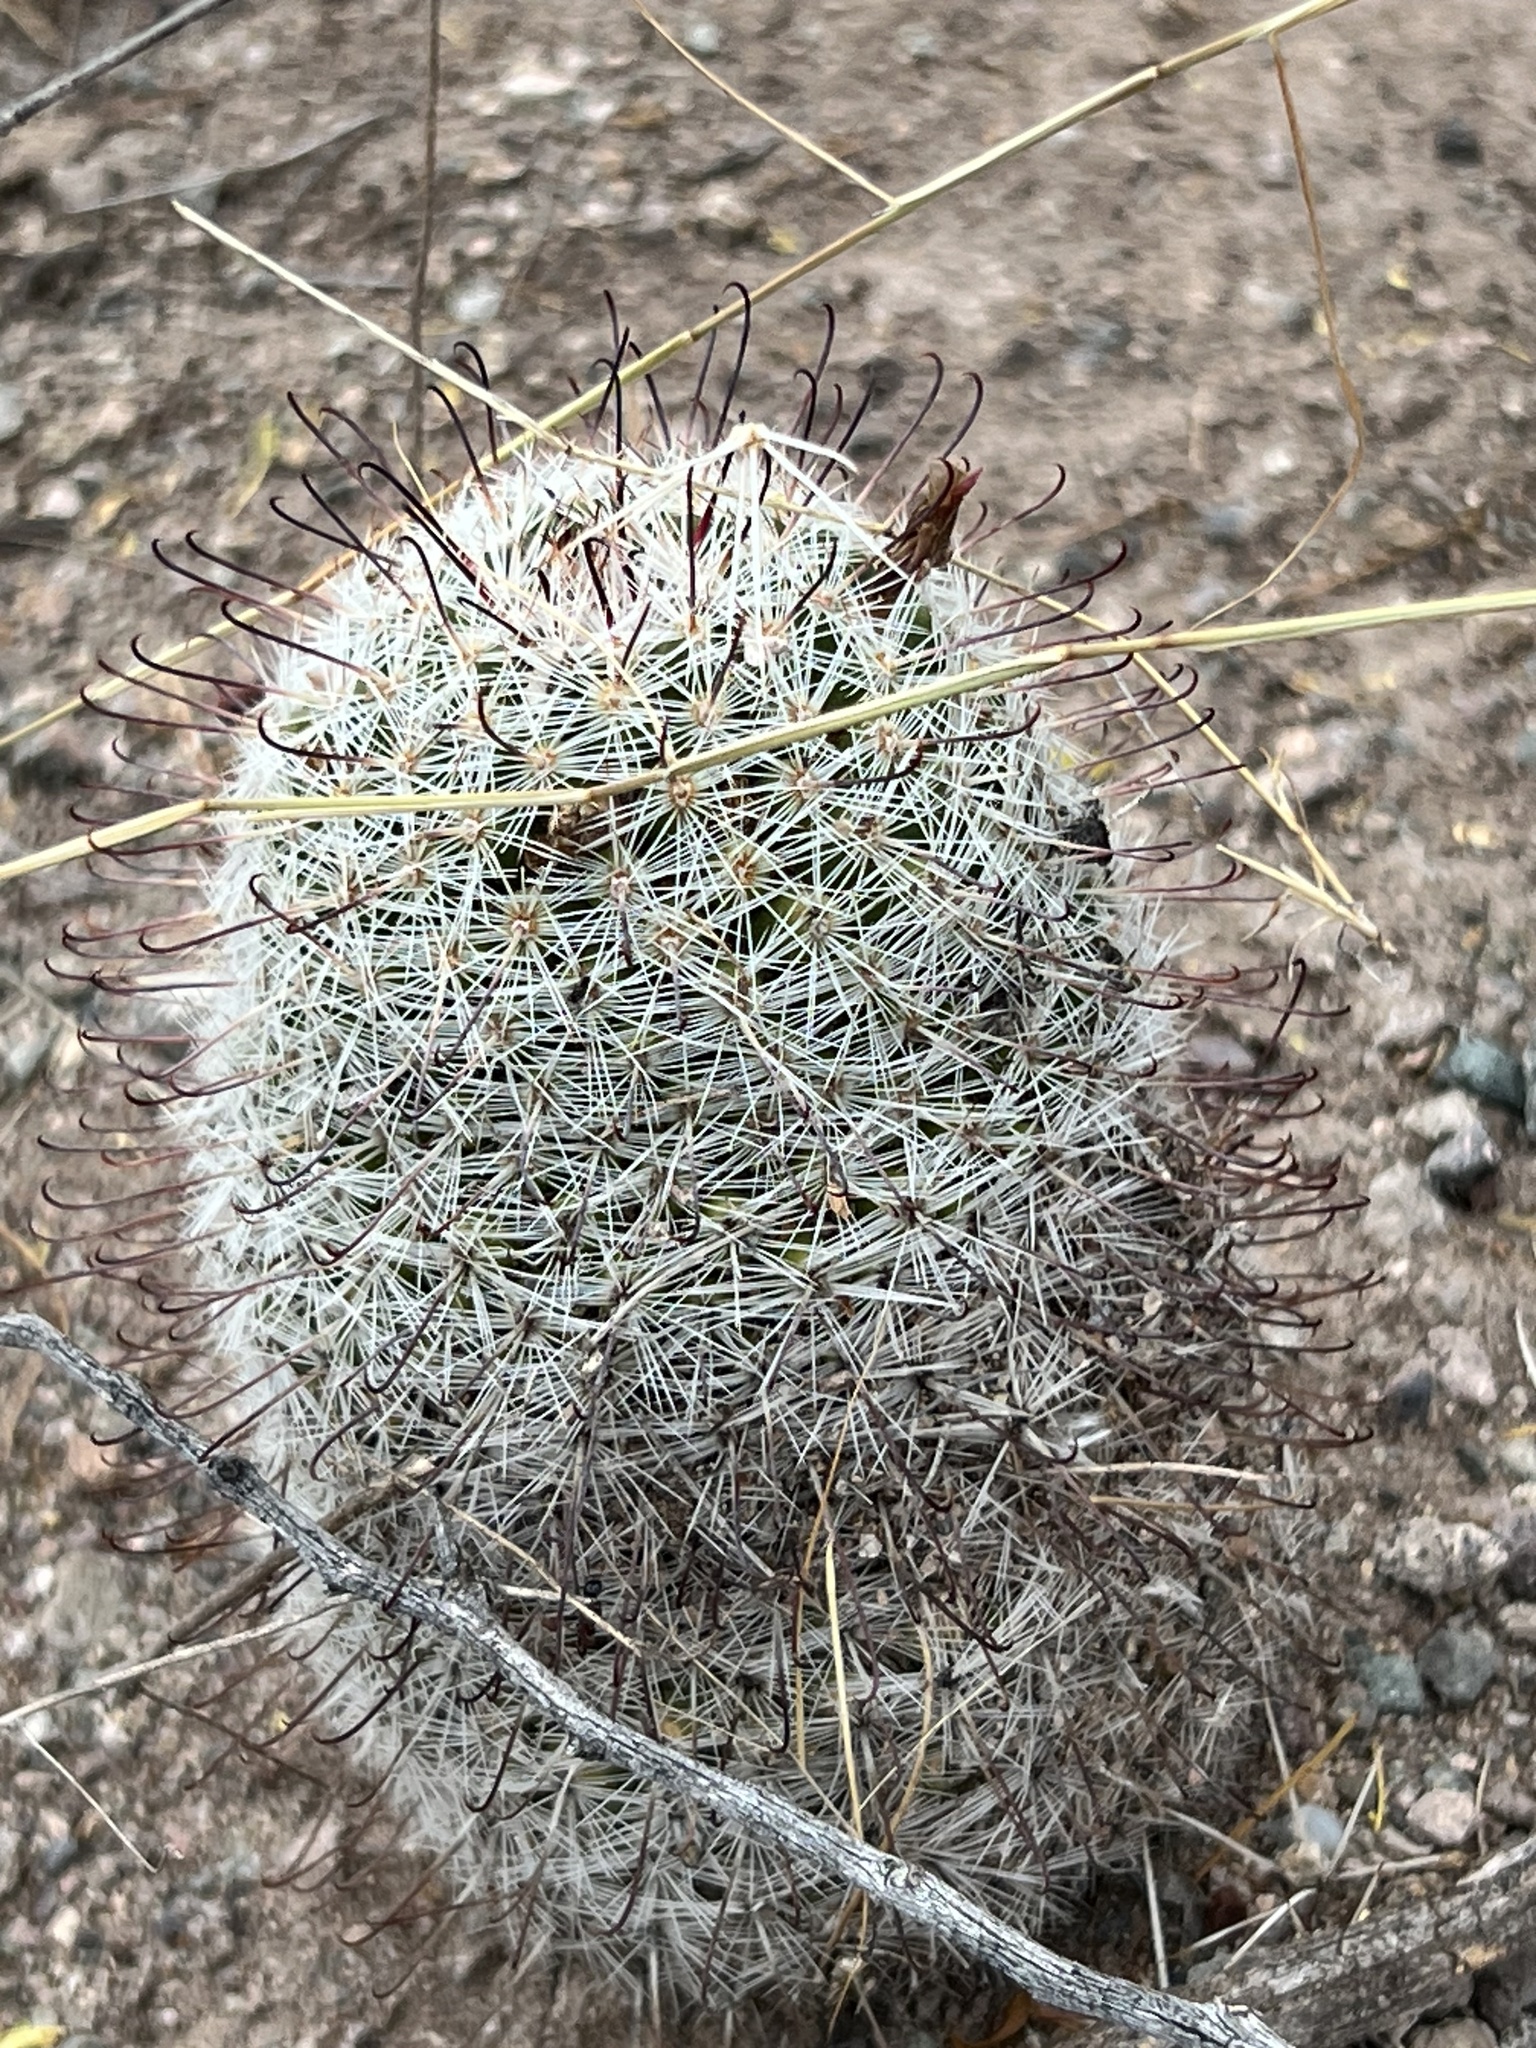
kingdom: Plantae
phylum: Tracheophyta
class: Magnoliopsida
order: Caryophyllales
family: Cactaceae
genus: Cochemiea
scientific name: Cochemiea grahamii
